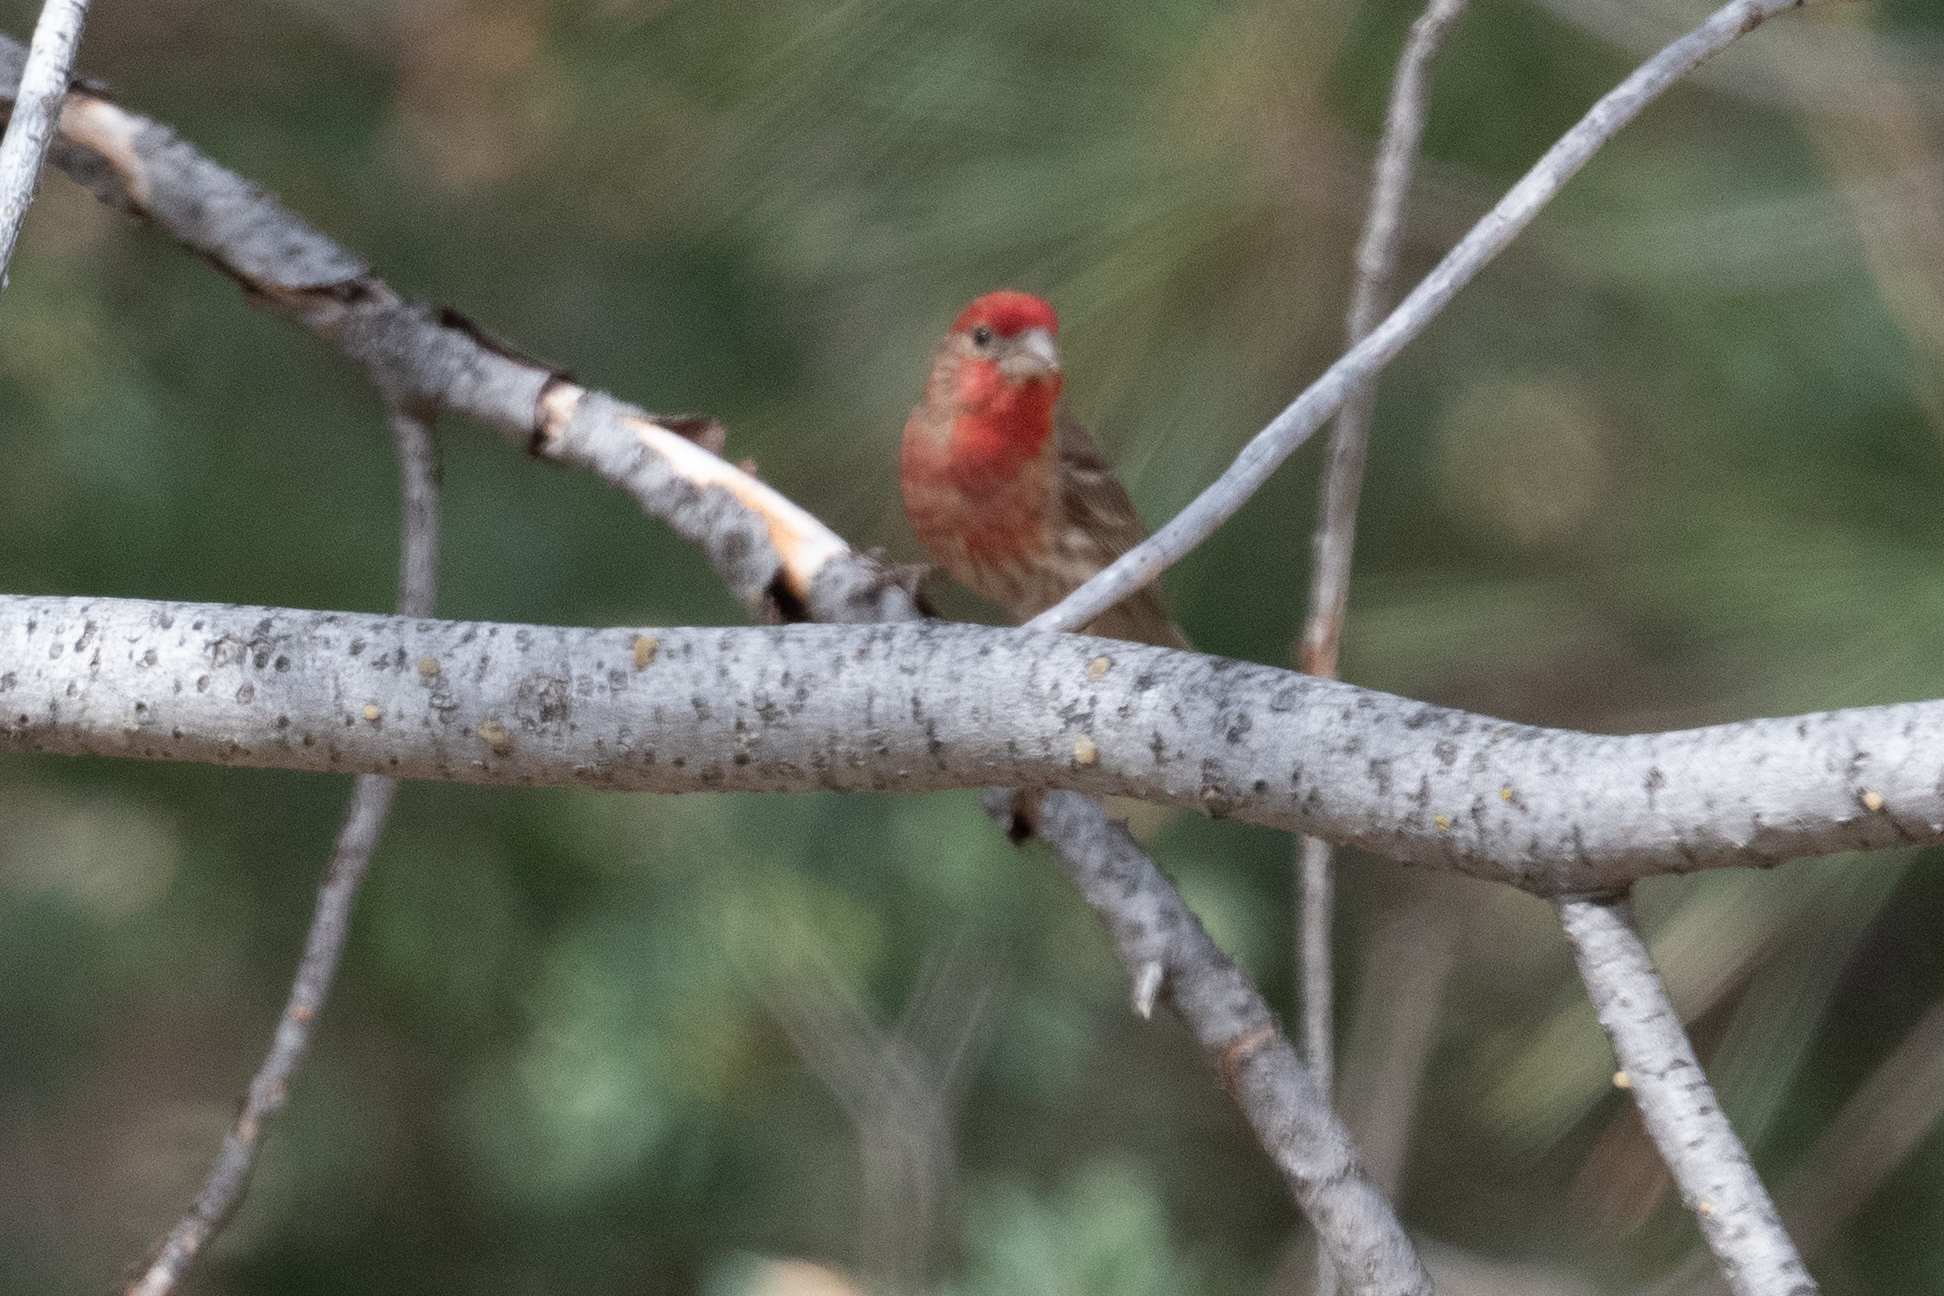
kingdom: Animalia
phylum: Chordata
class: Aves
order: Passeriformes
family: Fringillidae
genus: Haemorhous
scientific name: Haemorhous mexicanus
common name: House finch
